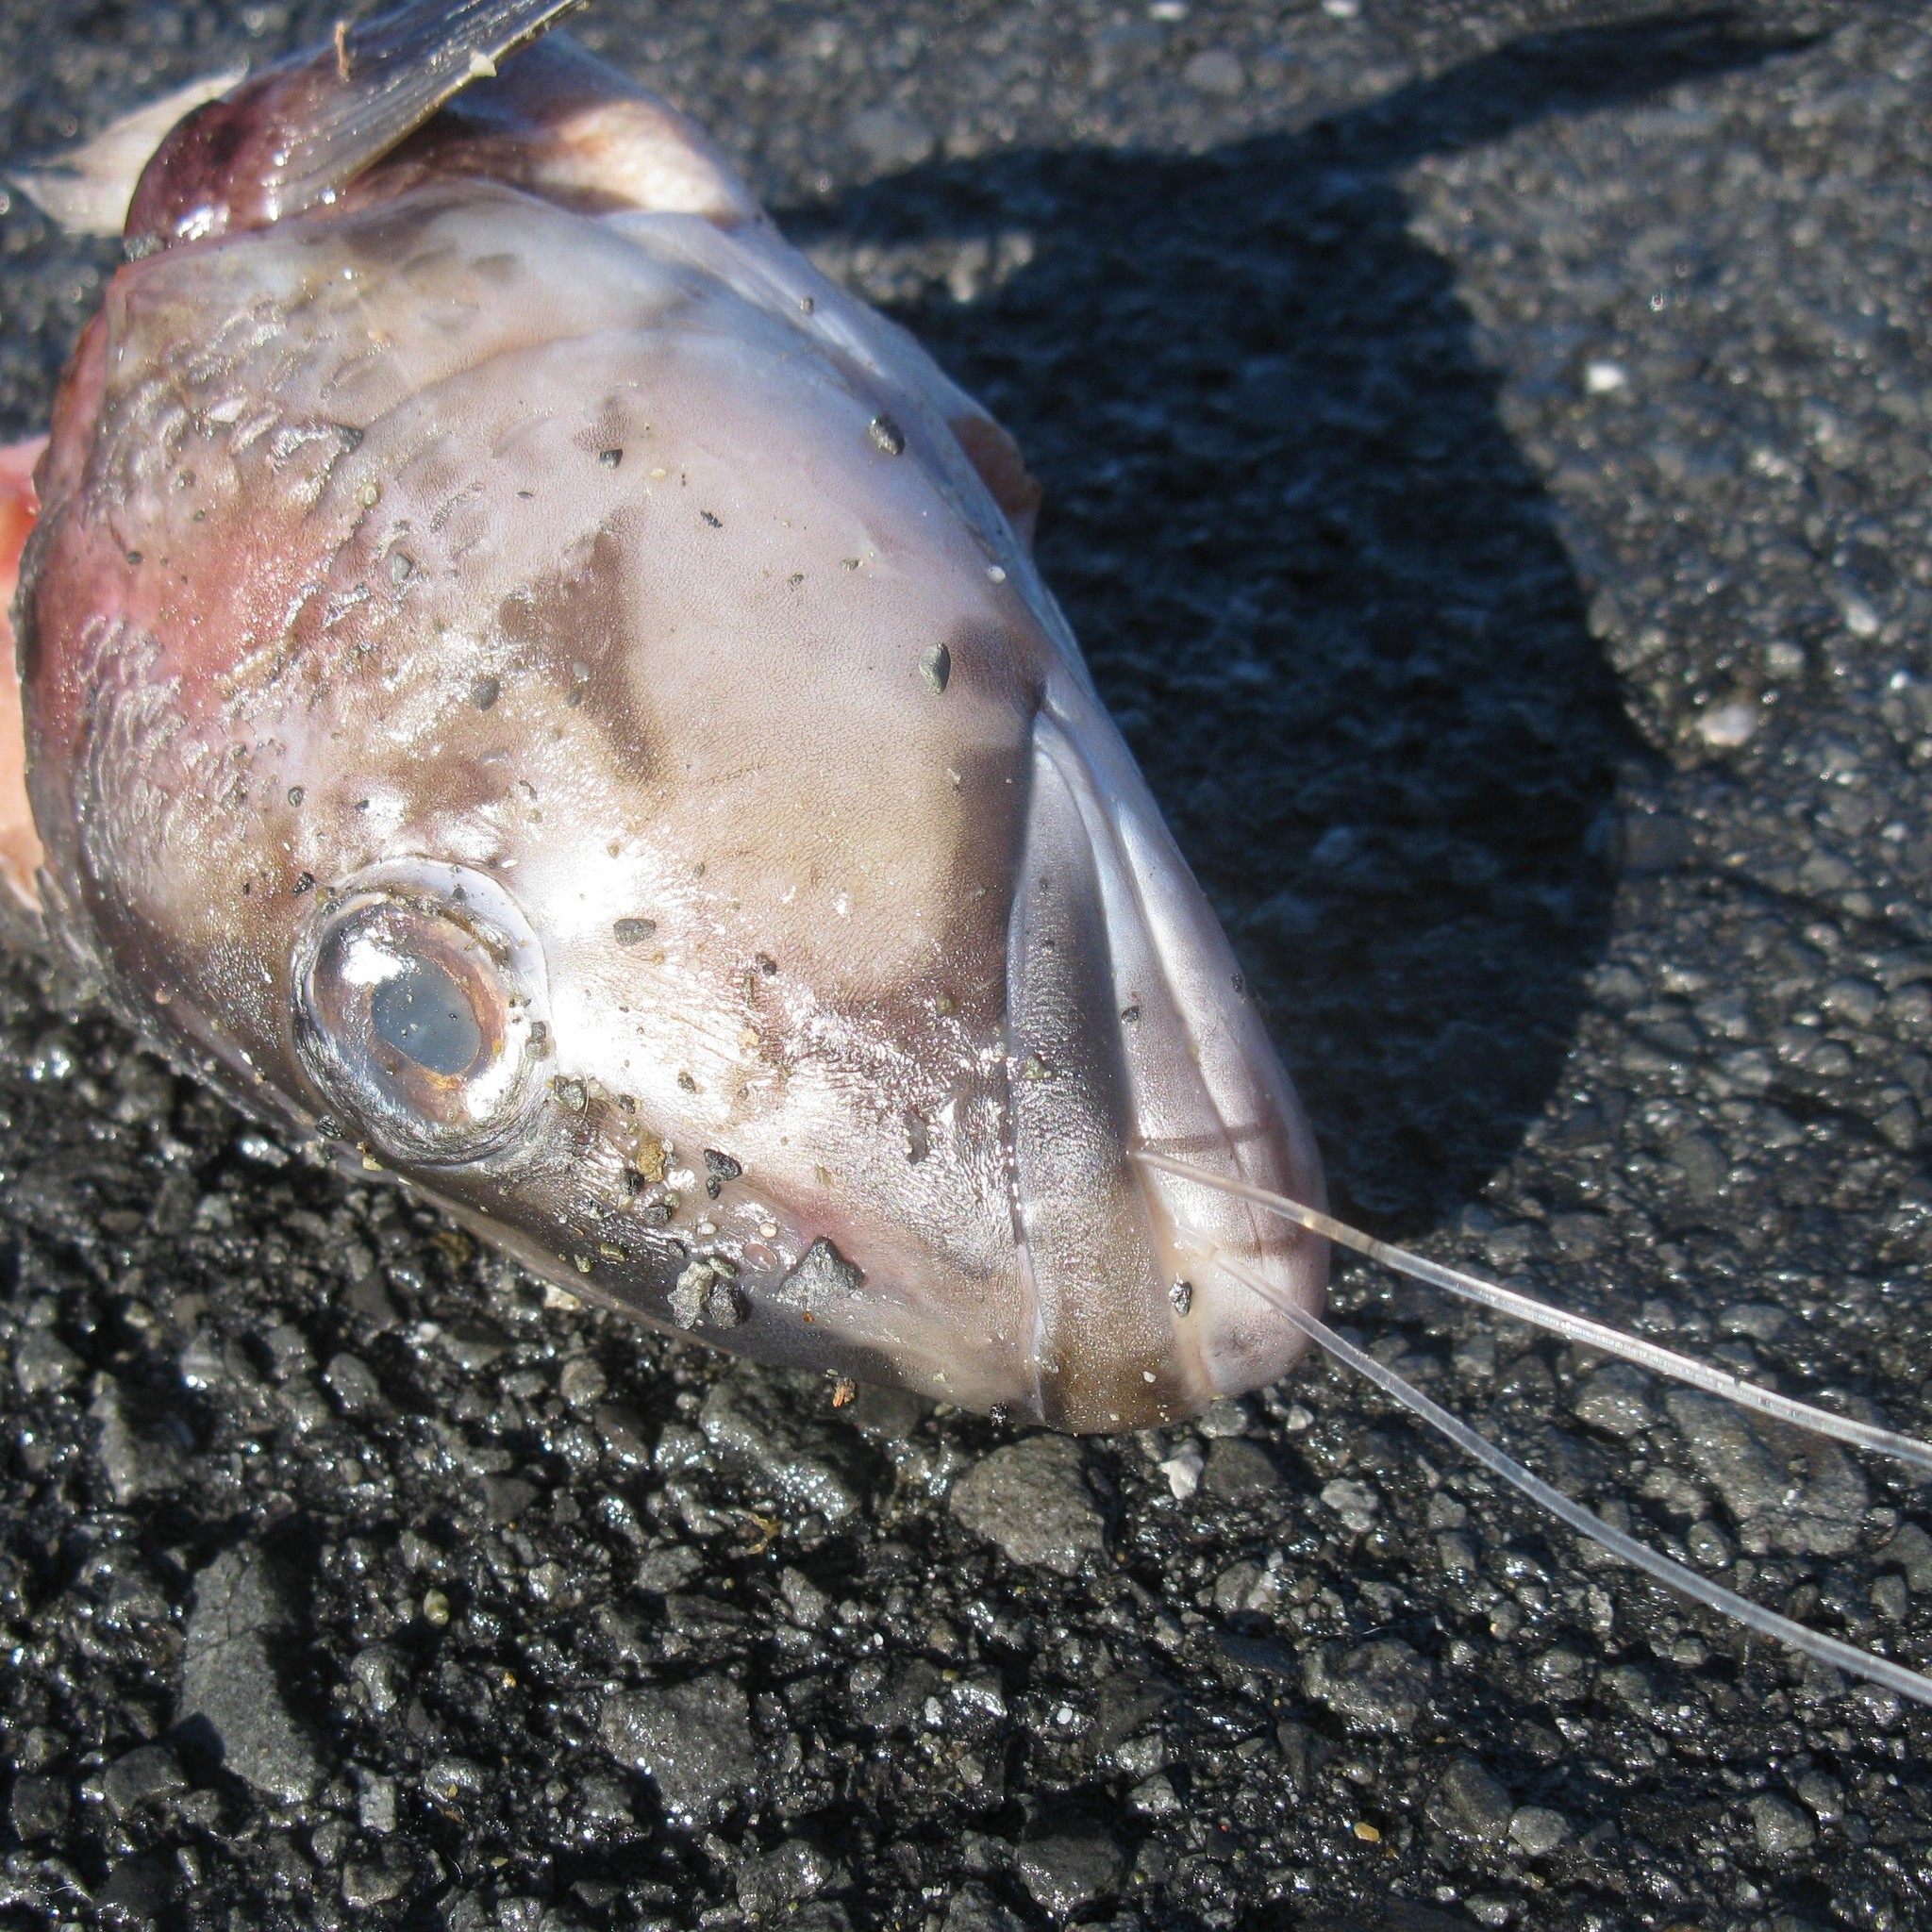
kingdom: Animalia
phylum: Chordata
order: Perciformes
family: Pinguipedidae
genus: Parapercis
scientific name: Parapercis colias
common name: Blue cod
